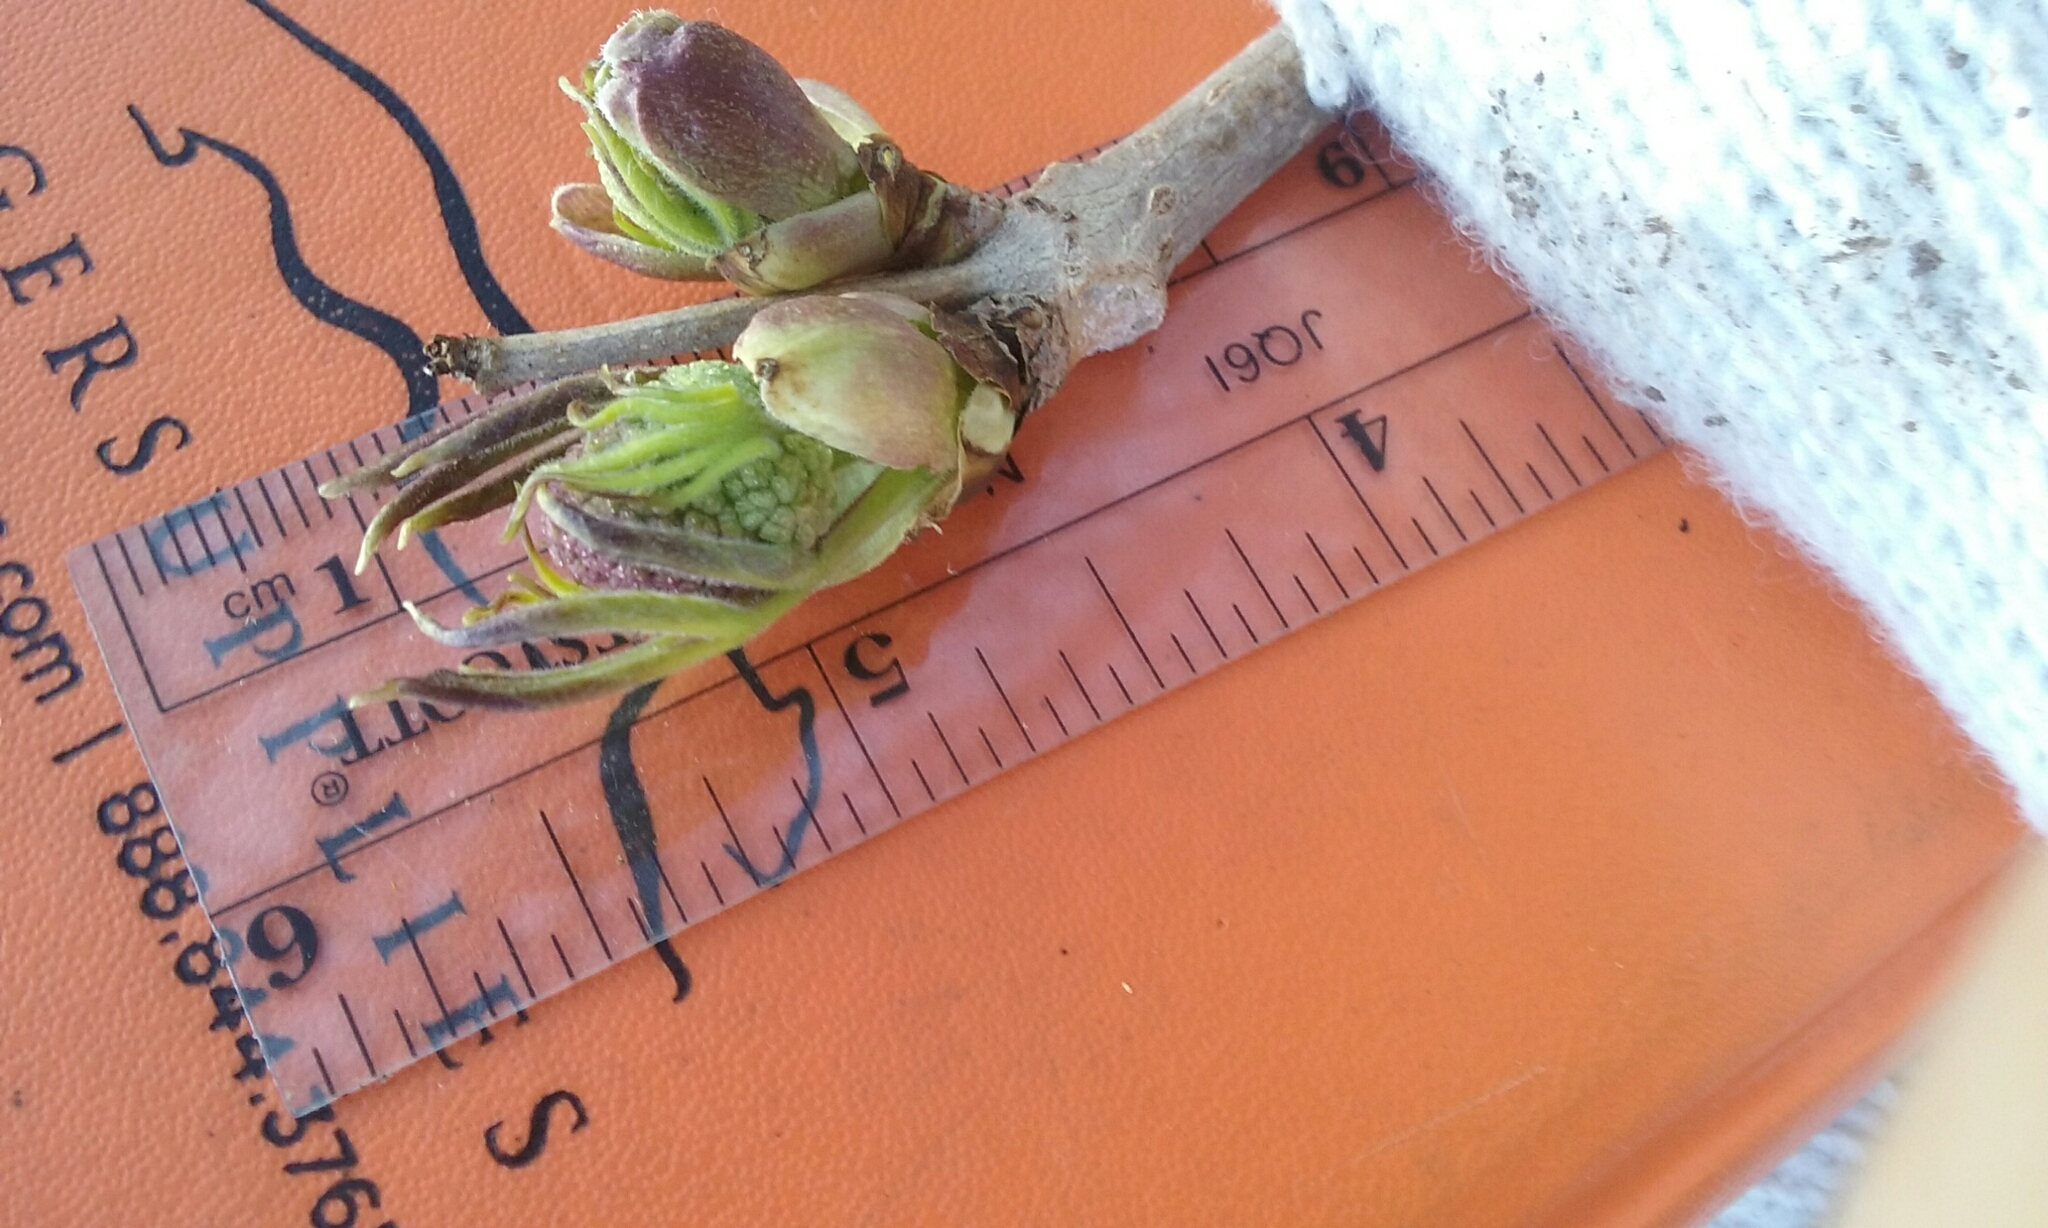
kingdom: Plantae
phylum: Tracheophyta
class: Magnoliopsida
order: Dipsacales
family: Viburnaceae
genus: Sambucus
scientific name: Sambucus racemosa
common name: Red-berried elder
